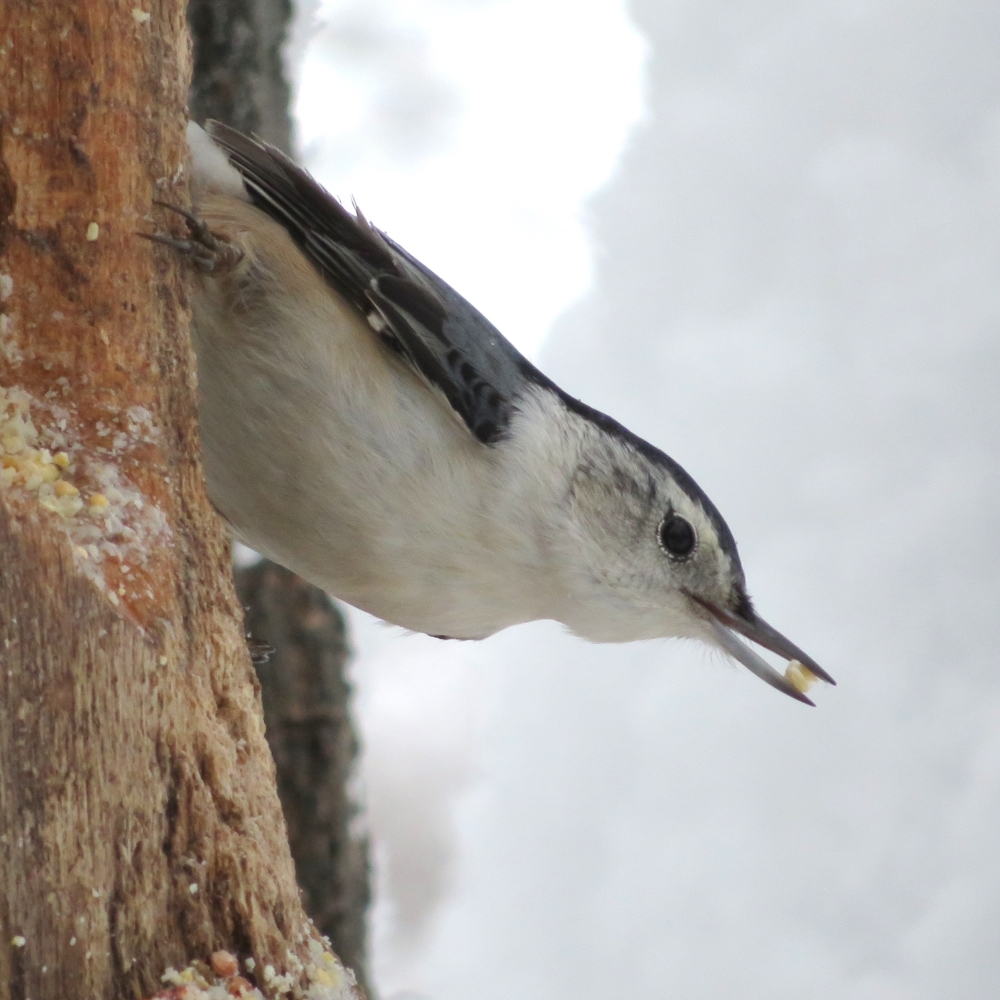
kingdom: Animalia
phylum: Chordata
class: Aves
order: Passeriformes
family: Sittidae
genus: Sitta
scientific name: Sitta carolinensis
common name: White-breasted nuthatch
